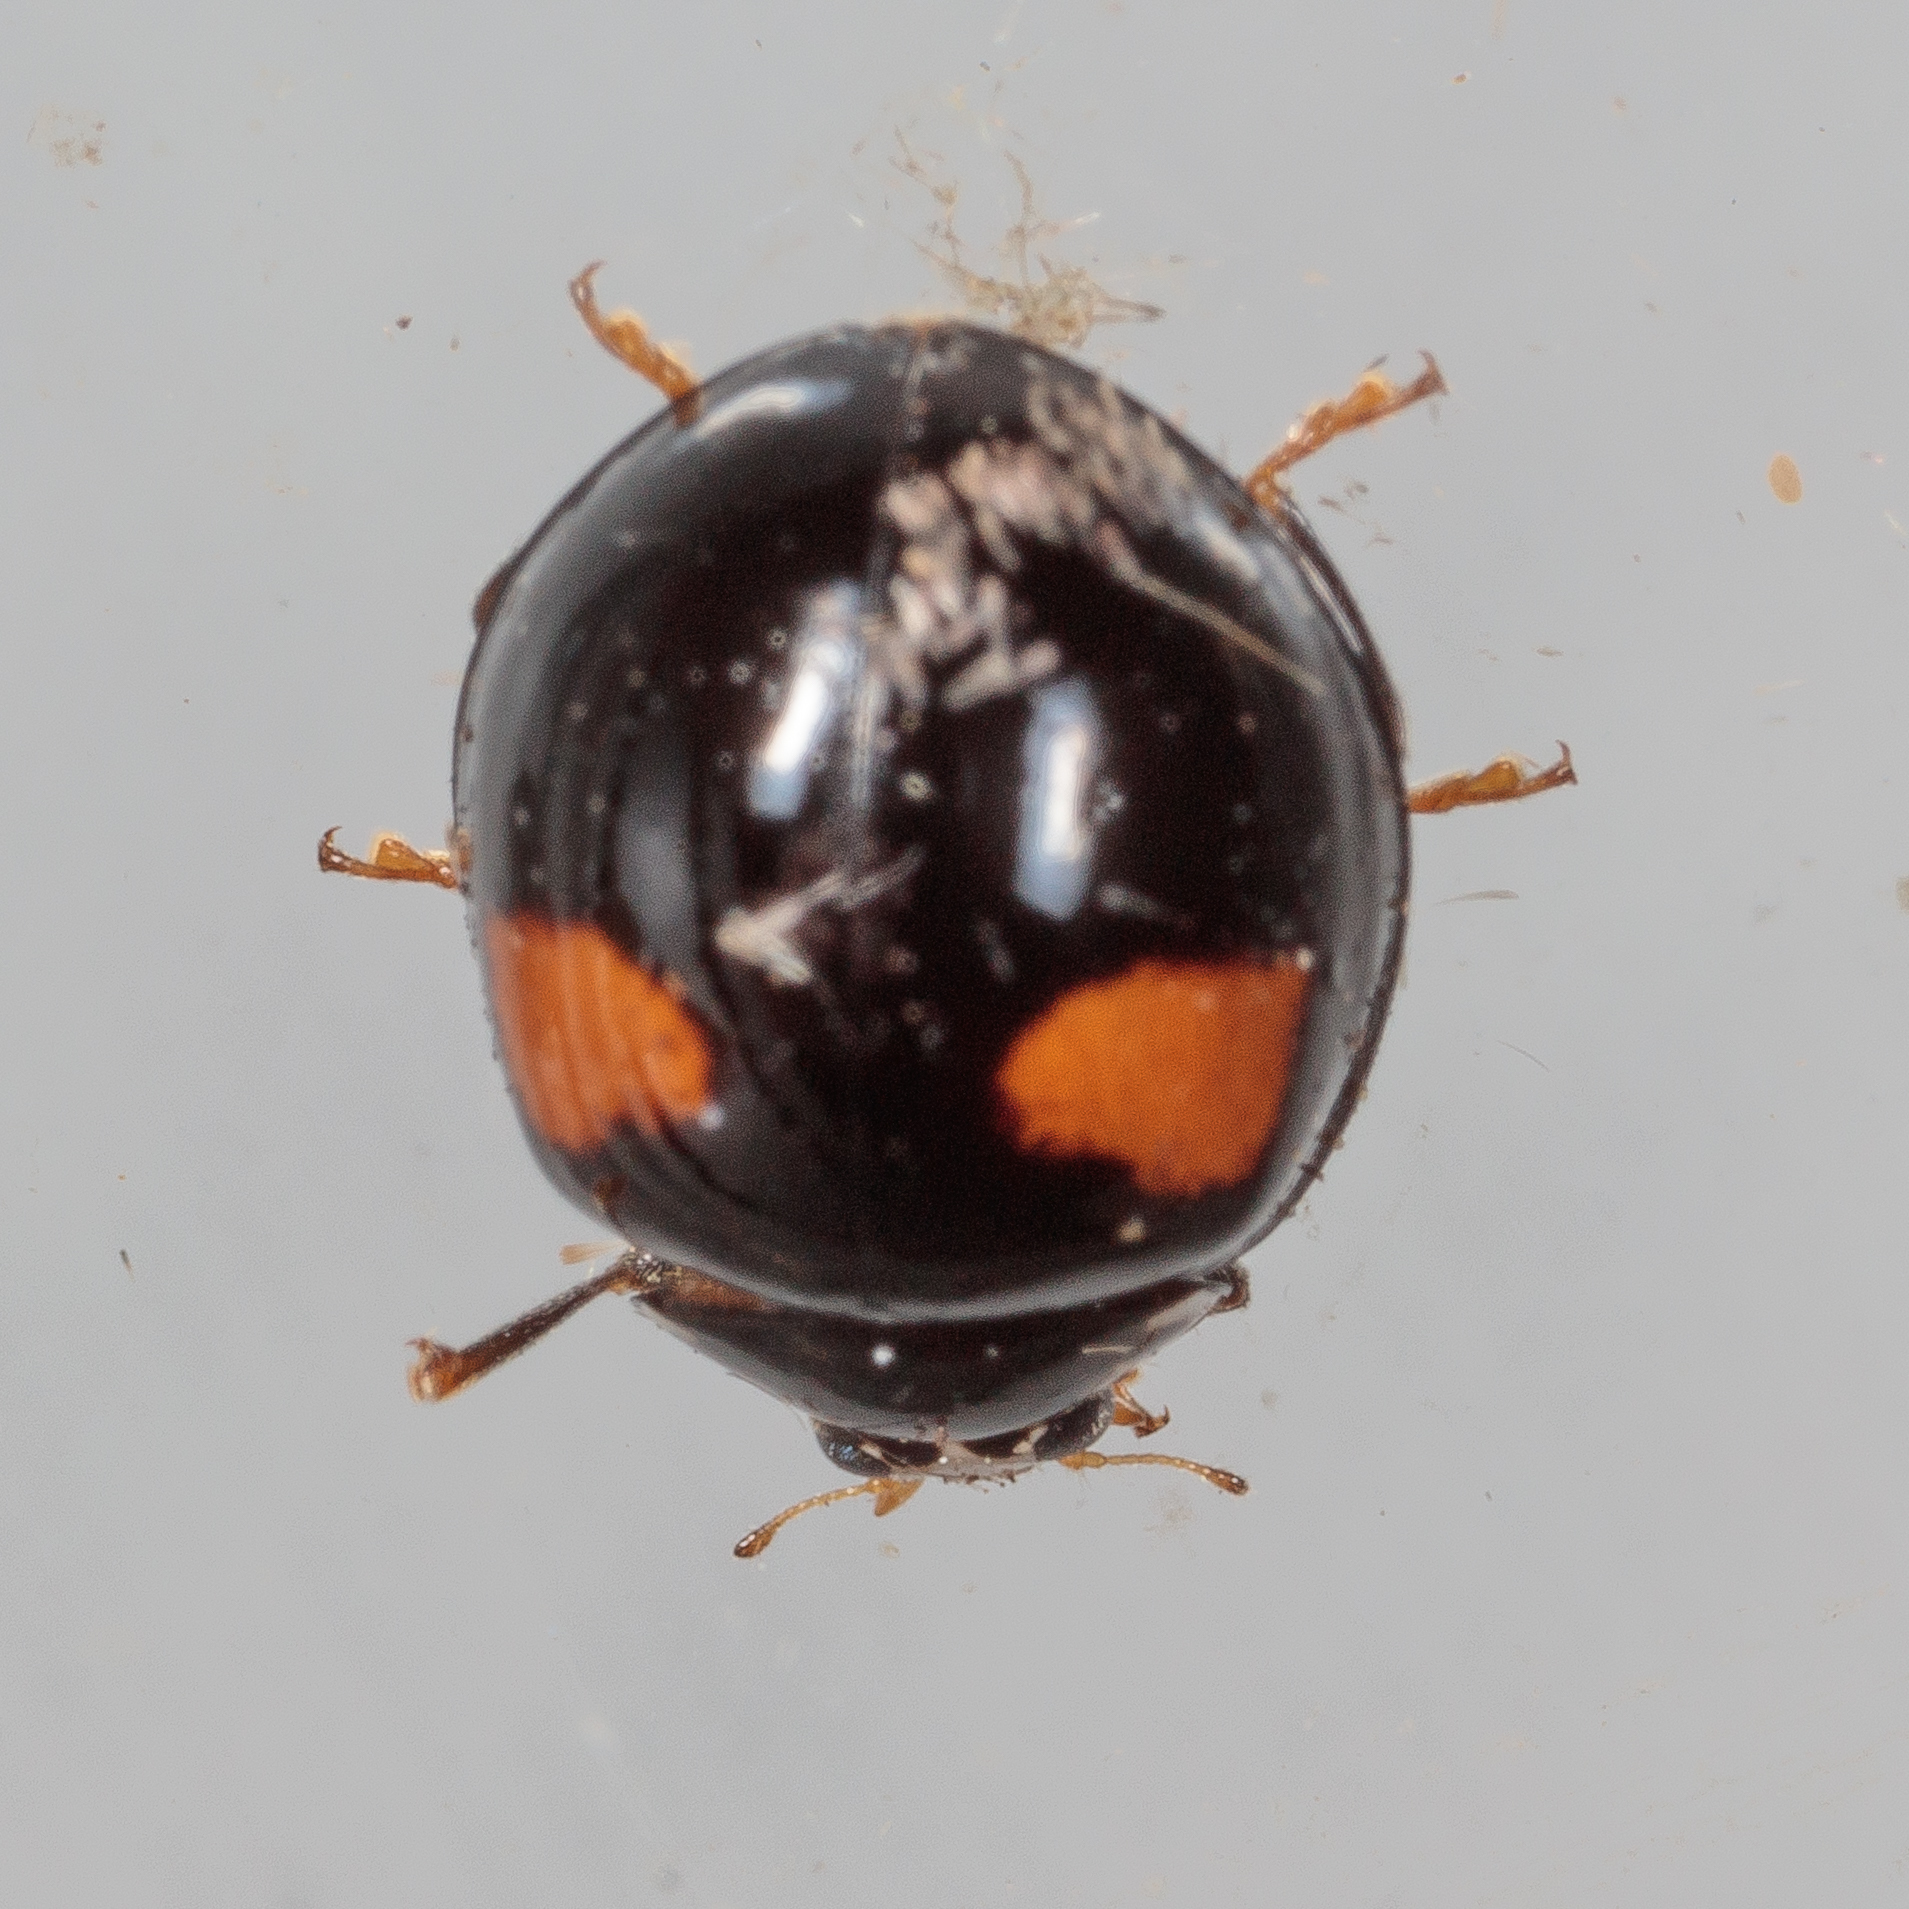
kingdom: Animalia
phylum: Arthropoda
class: Insecta
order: Coleoptera
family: Coccinellidae
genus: Olla
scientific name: Olla v-nigrum
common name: Ashy gray lady beetle
